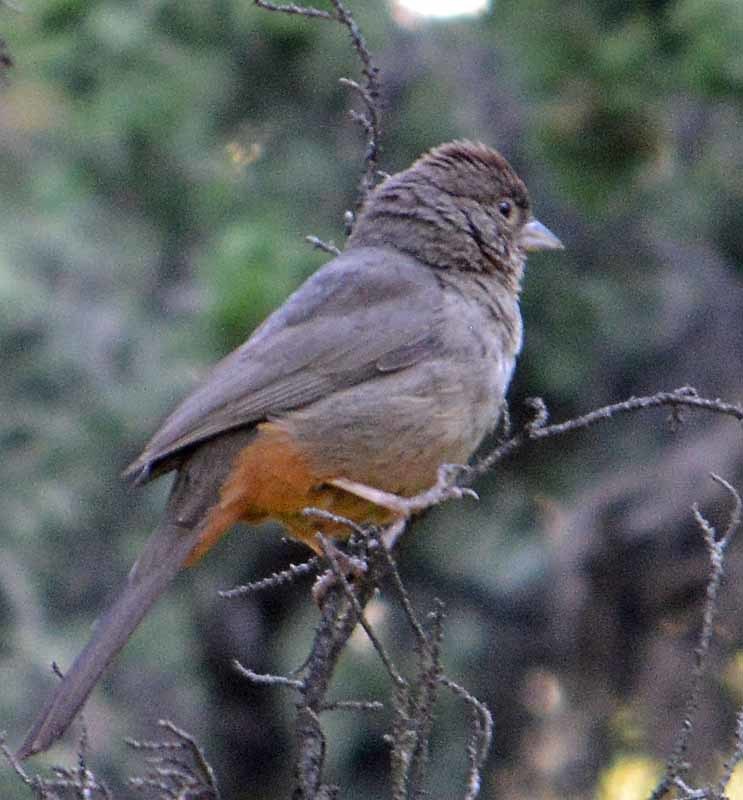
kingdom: Animalia
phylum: Chordata
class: Aves
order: Passeriformes
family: Passerellidae
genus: Melozone
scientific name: Melozone fusca
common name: Canyon towhee
